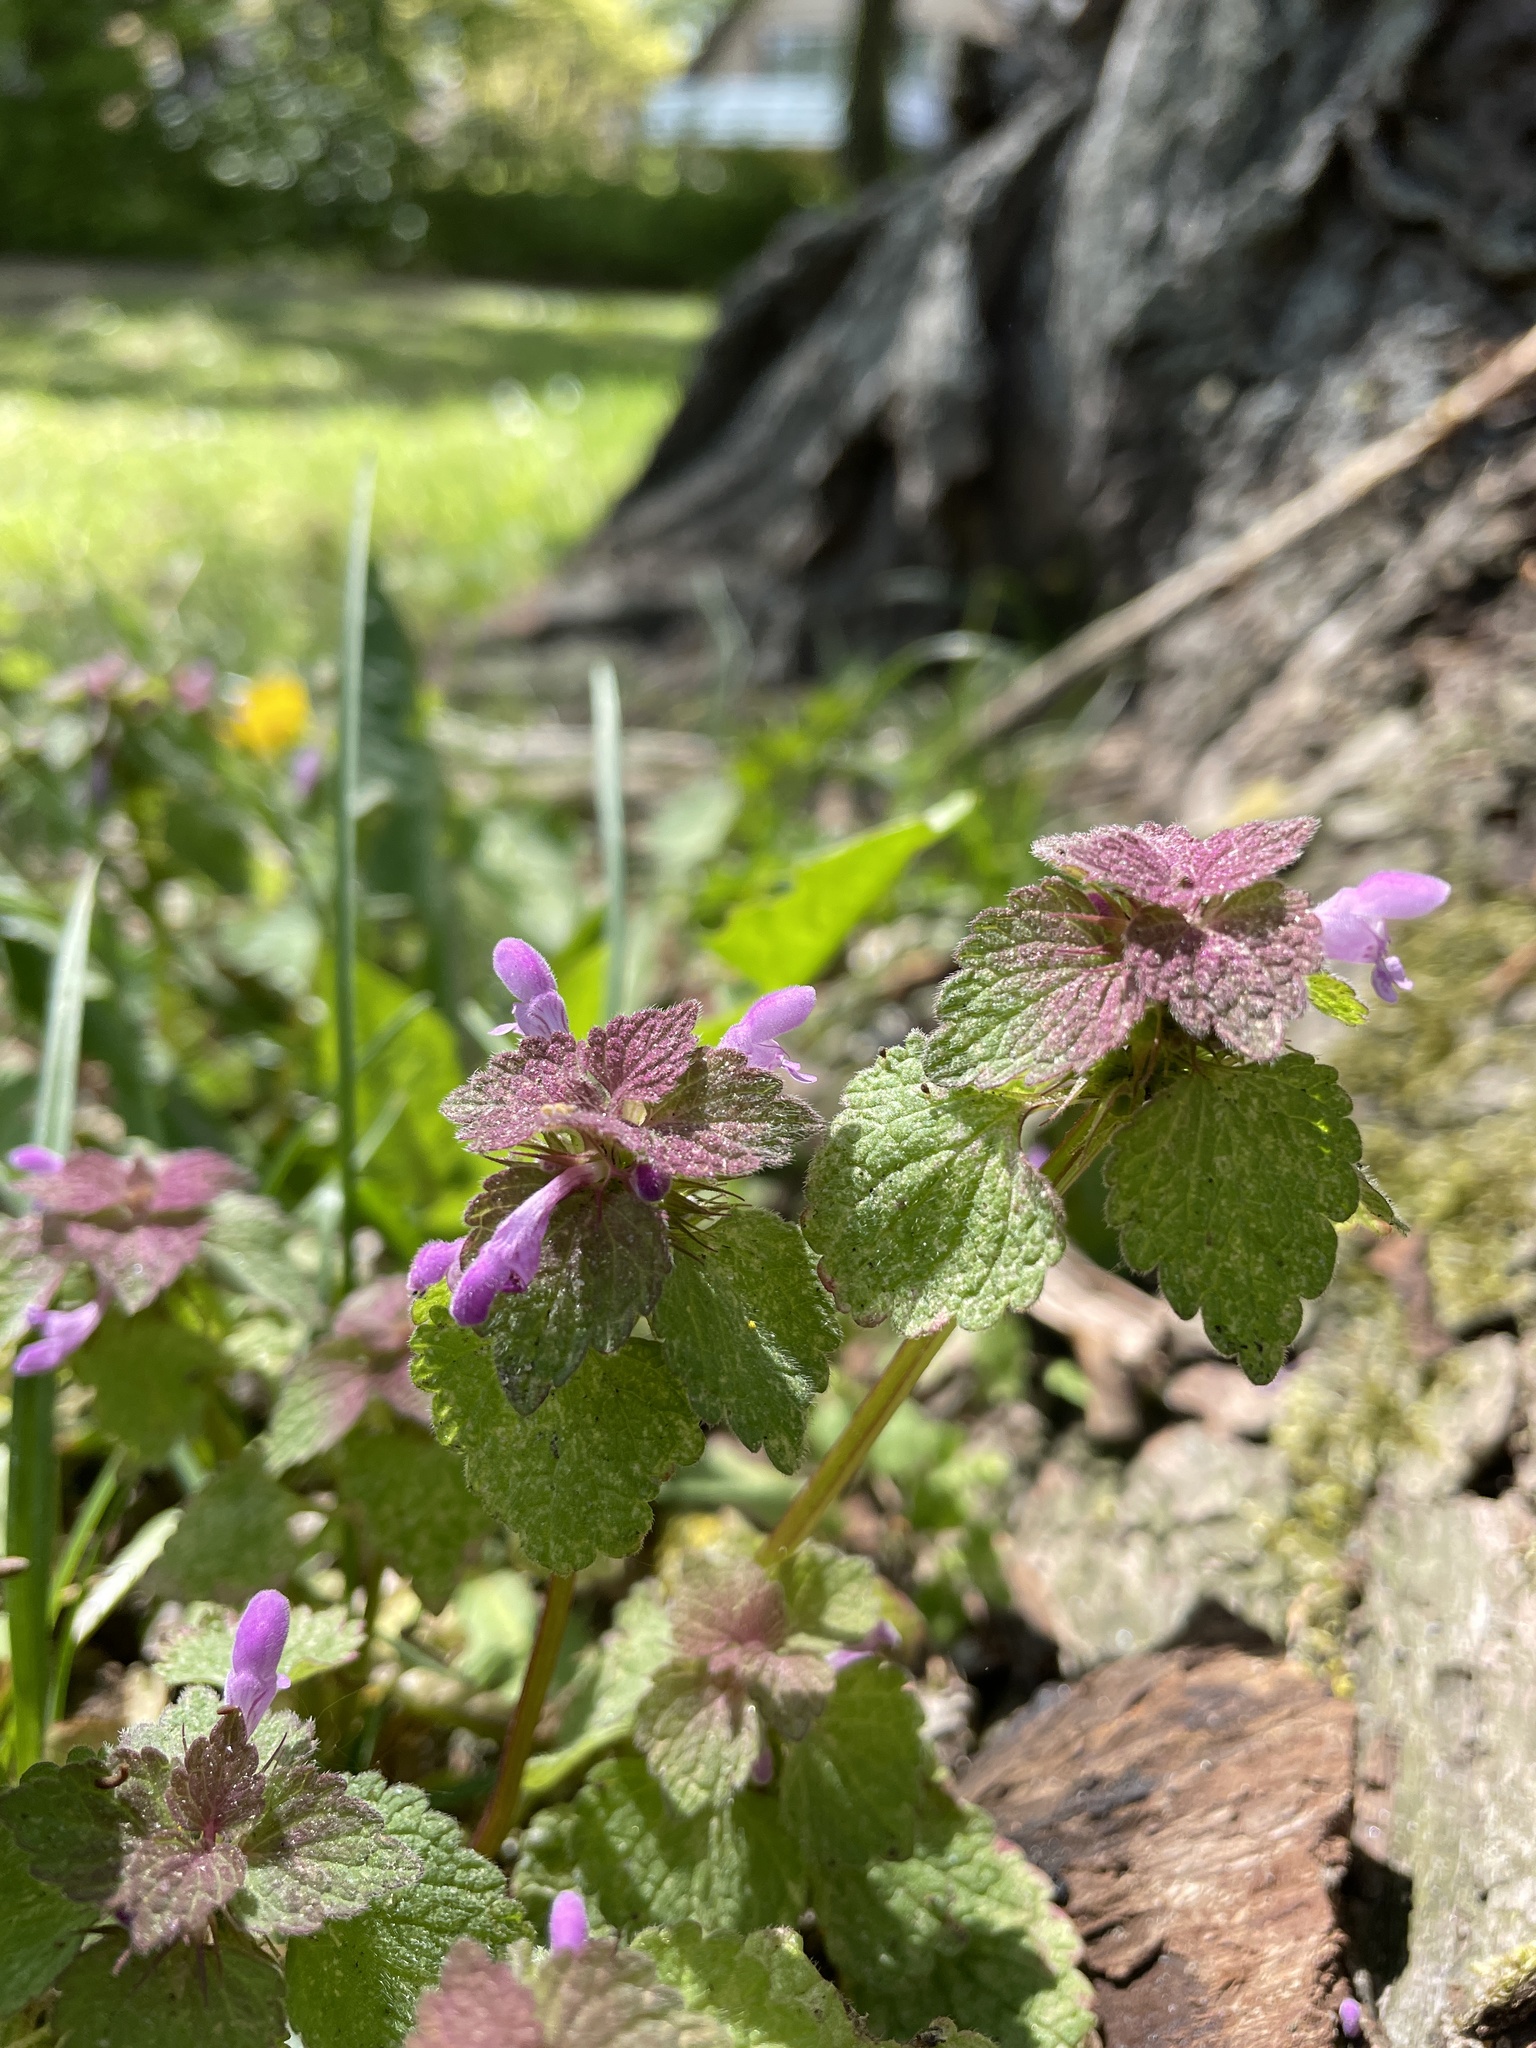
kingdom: Plantae
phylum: Tracheophyta
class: Magnoliopsida
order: Lamiales
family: Lamiaceae
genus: Lamium
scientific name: Lamium purpureum
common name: Red dead-nettle
